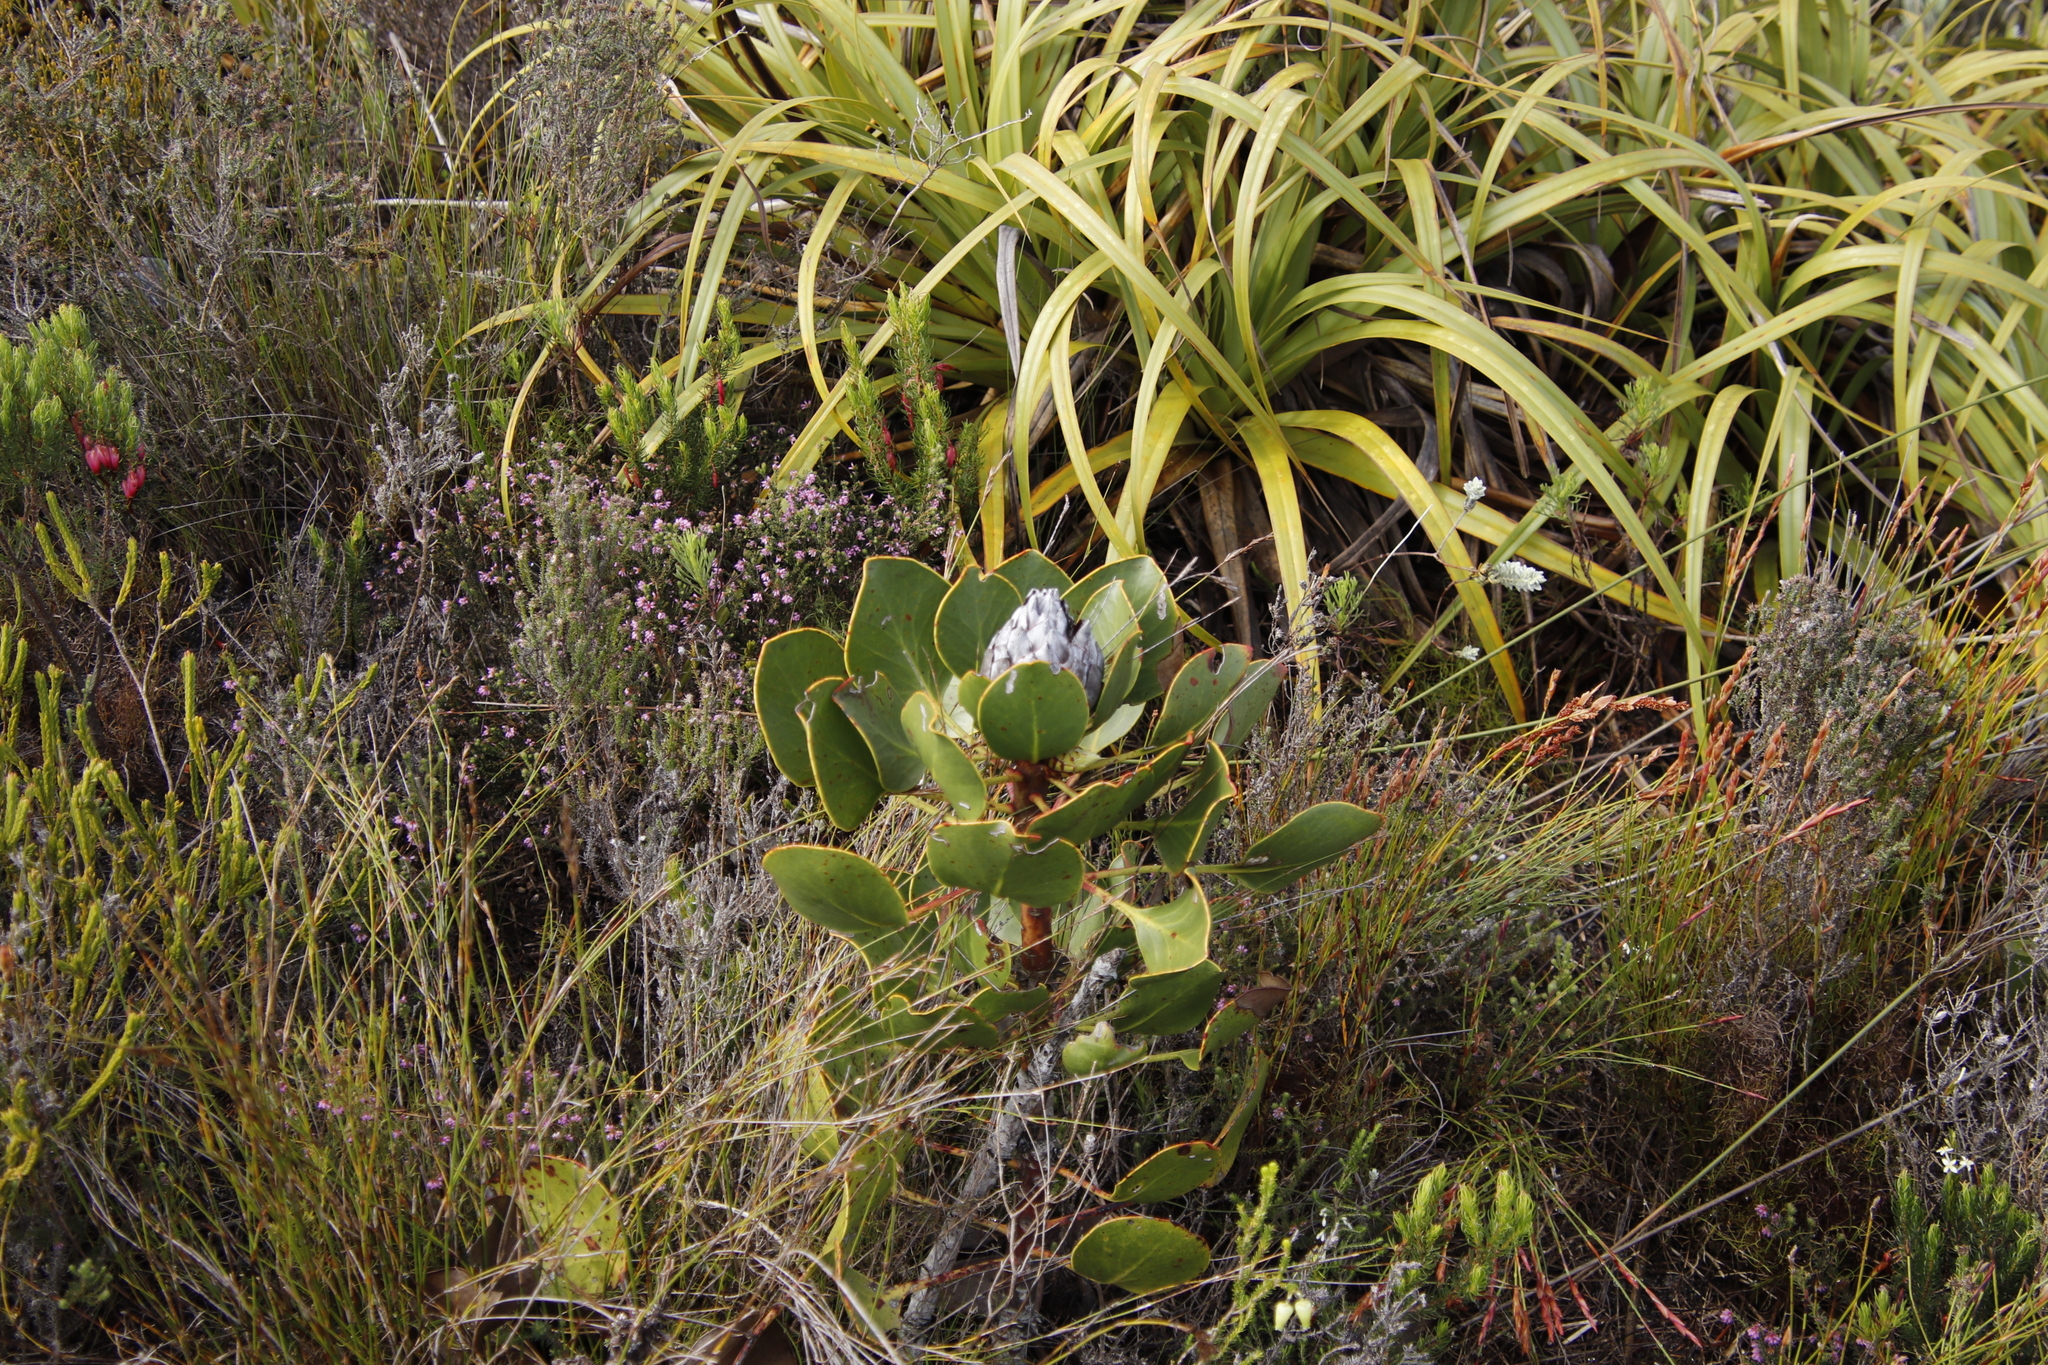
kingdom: Plantae
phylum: Tracheophyta
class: Magnoliopsida
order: Proteales
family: Proteaceae
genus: Protea
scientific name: Protea cynaroides
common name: King protea
